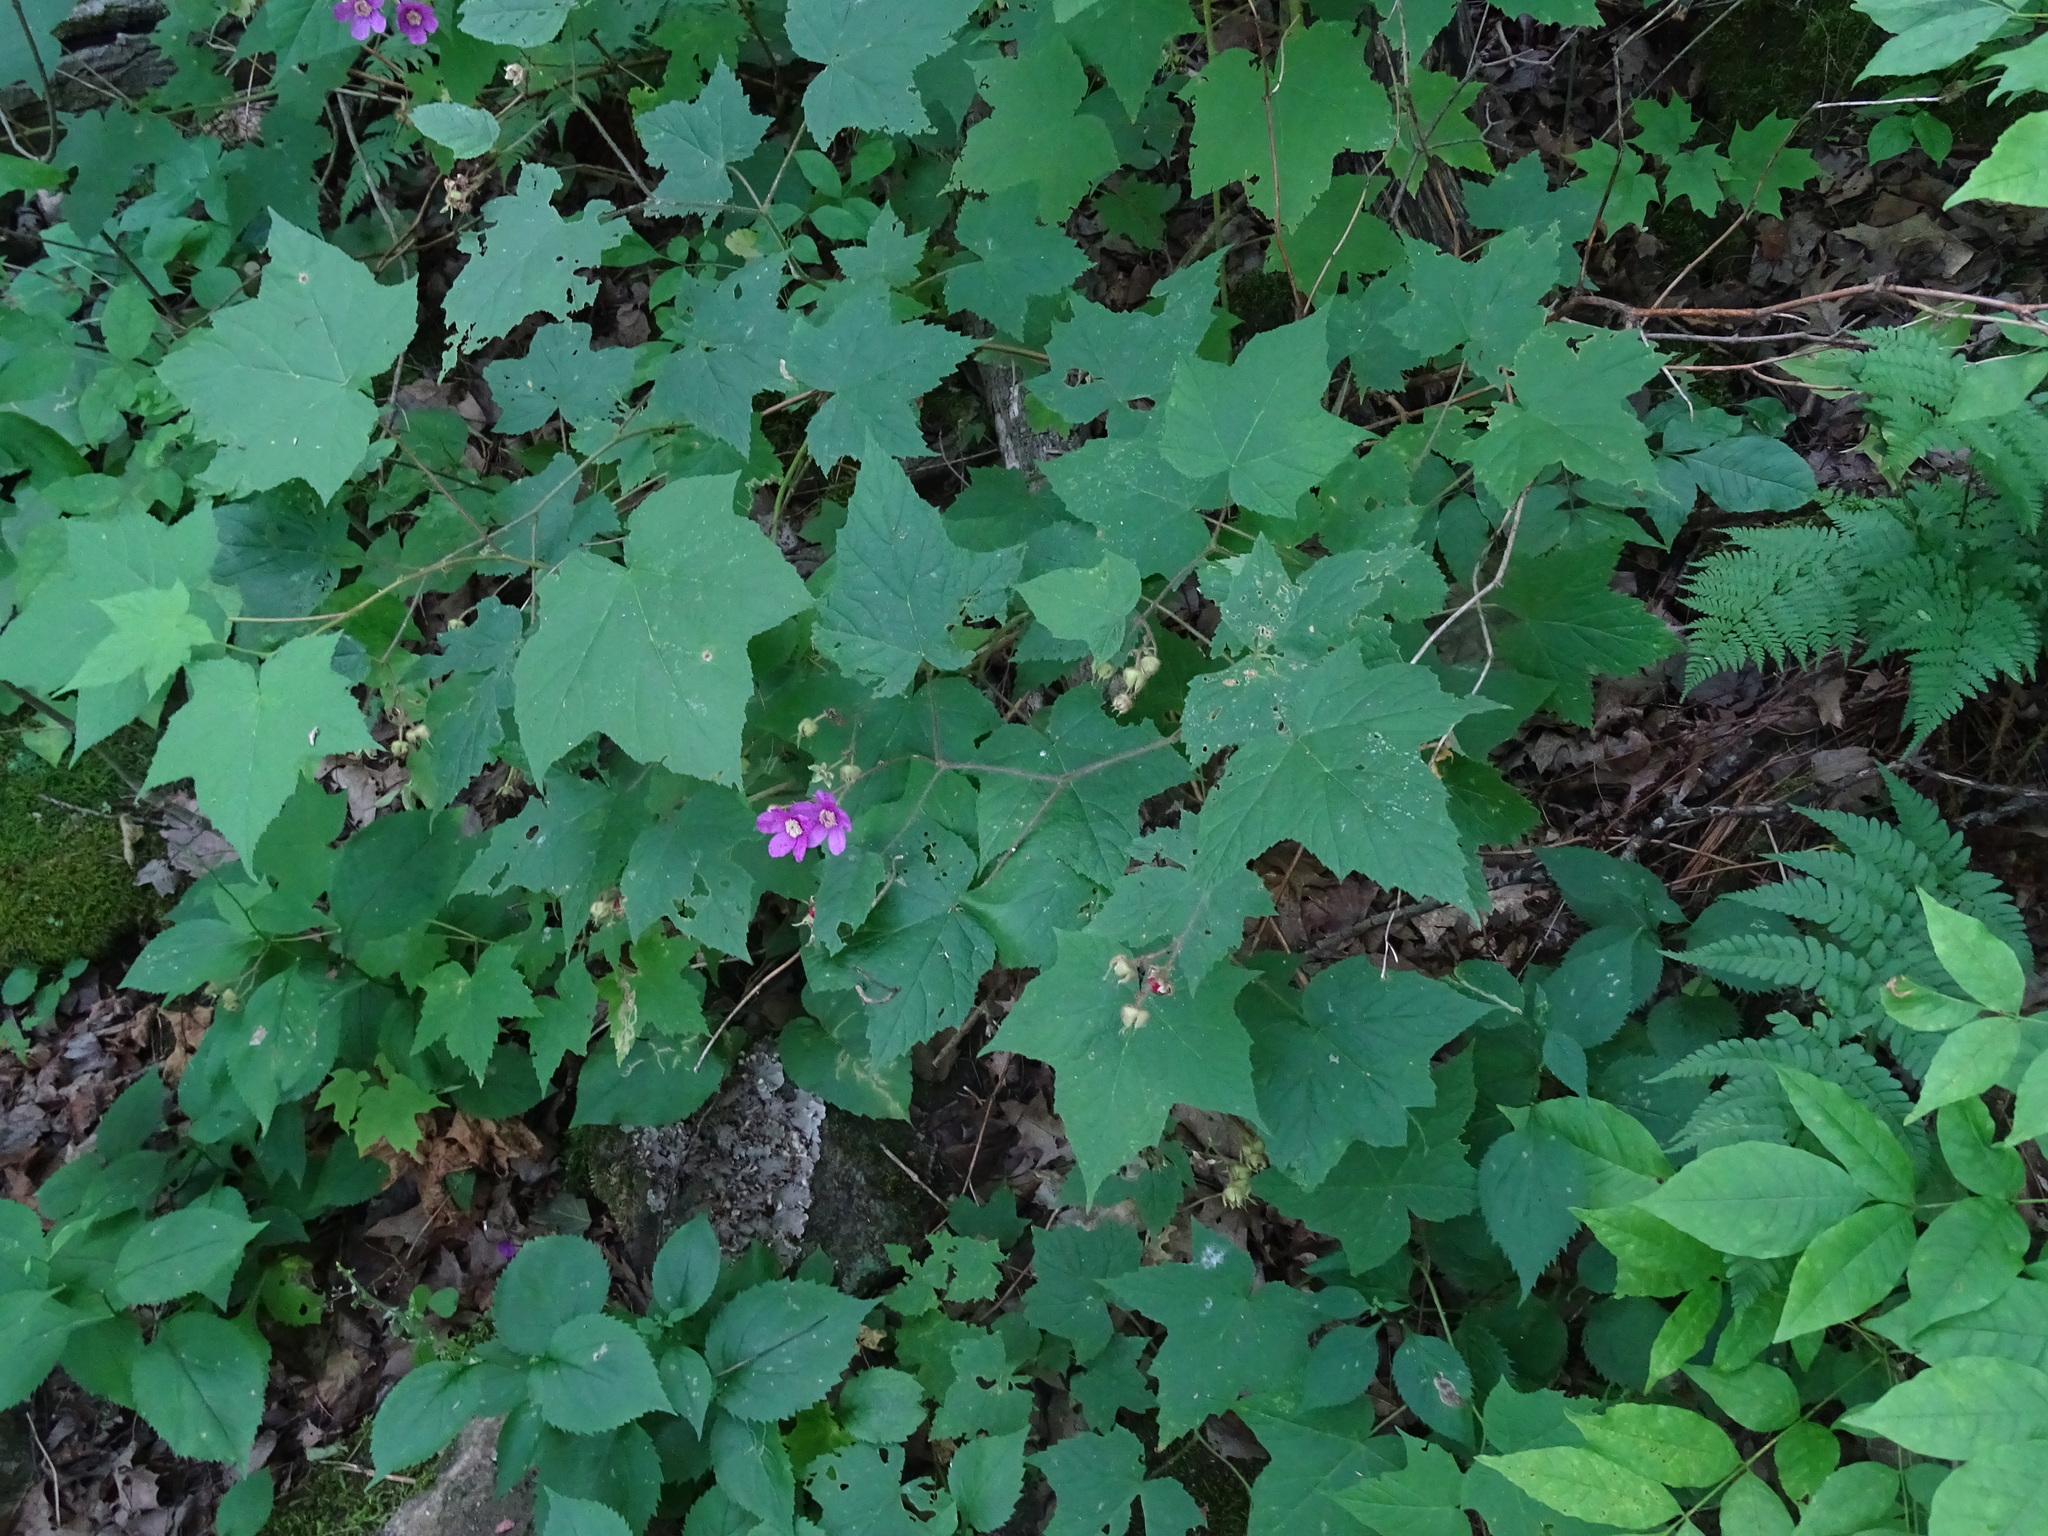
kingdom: Plantae
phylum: Tracheophyta
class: Magnoliopsida
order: Rosales
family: Rosaceae
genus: Rubus
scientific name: Rubus odoratus
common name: Purple-flowered raspberry
